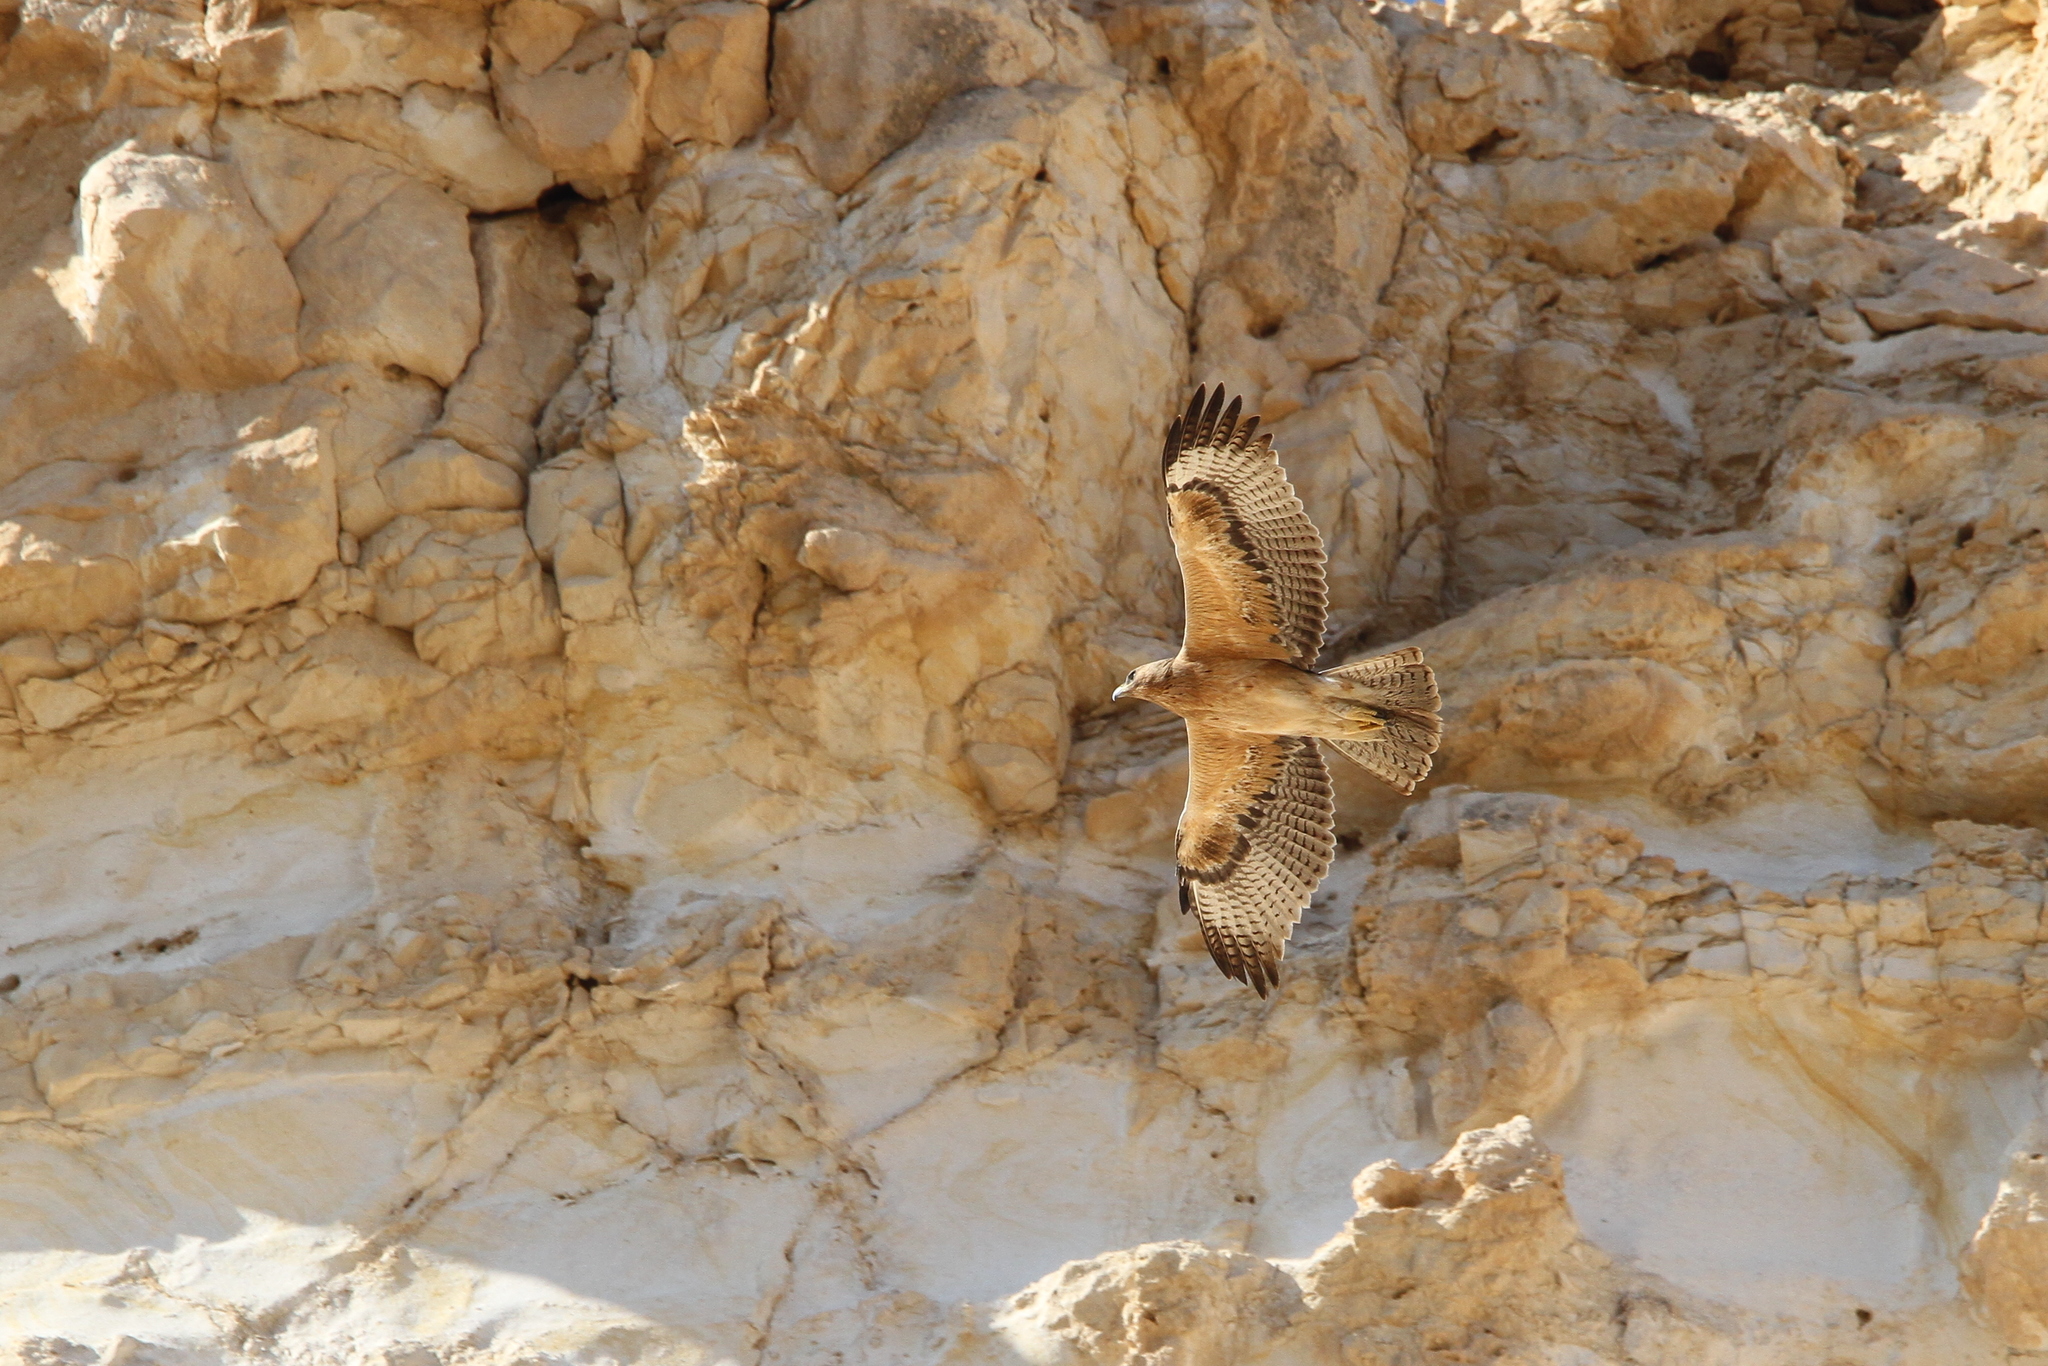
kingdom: Animalia
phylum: Chordata
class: Aves
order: Accipitriformes
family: Accipitridae
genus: Aquila
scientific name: Aquila fasciata
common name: Bonelli's eagle
